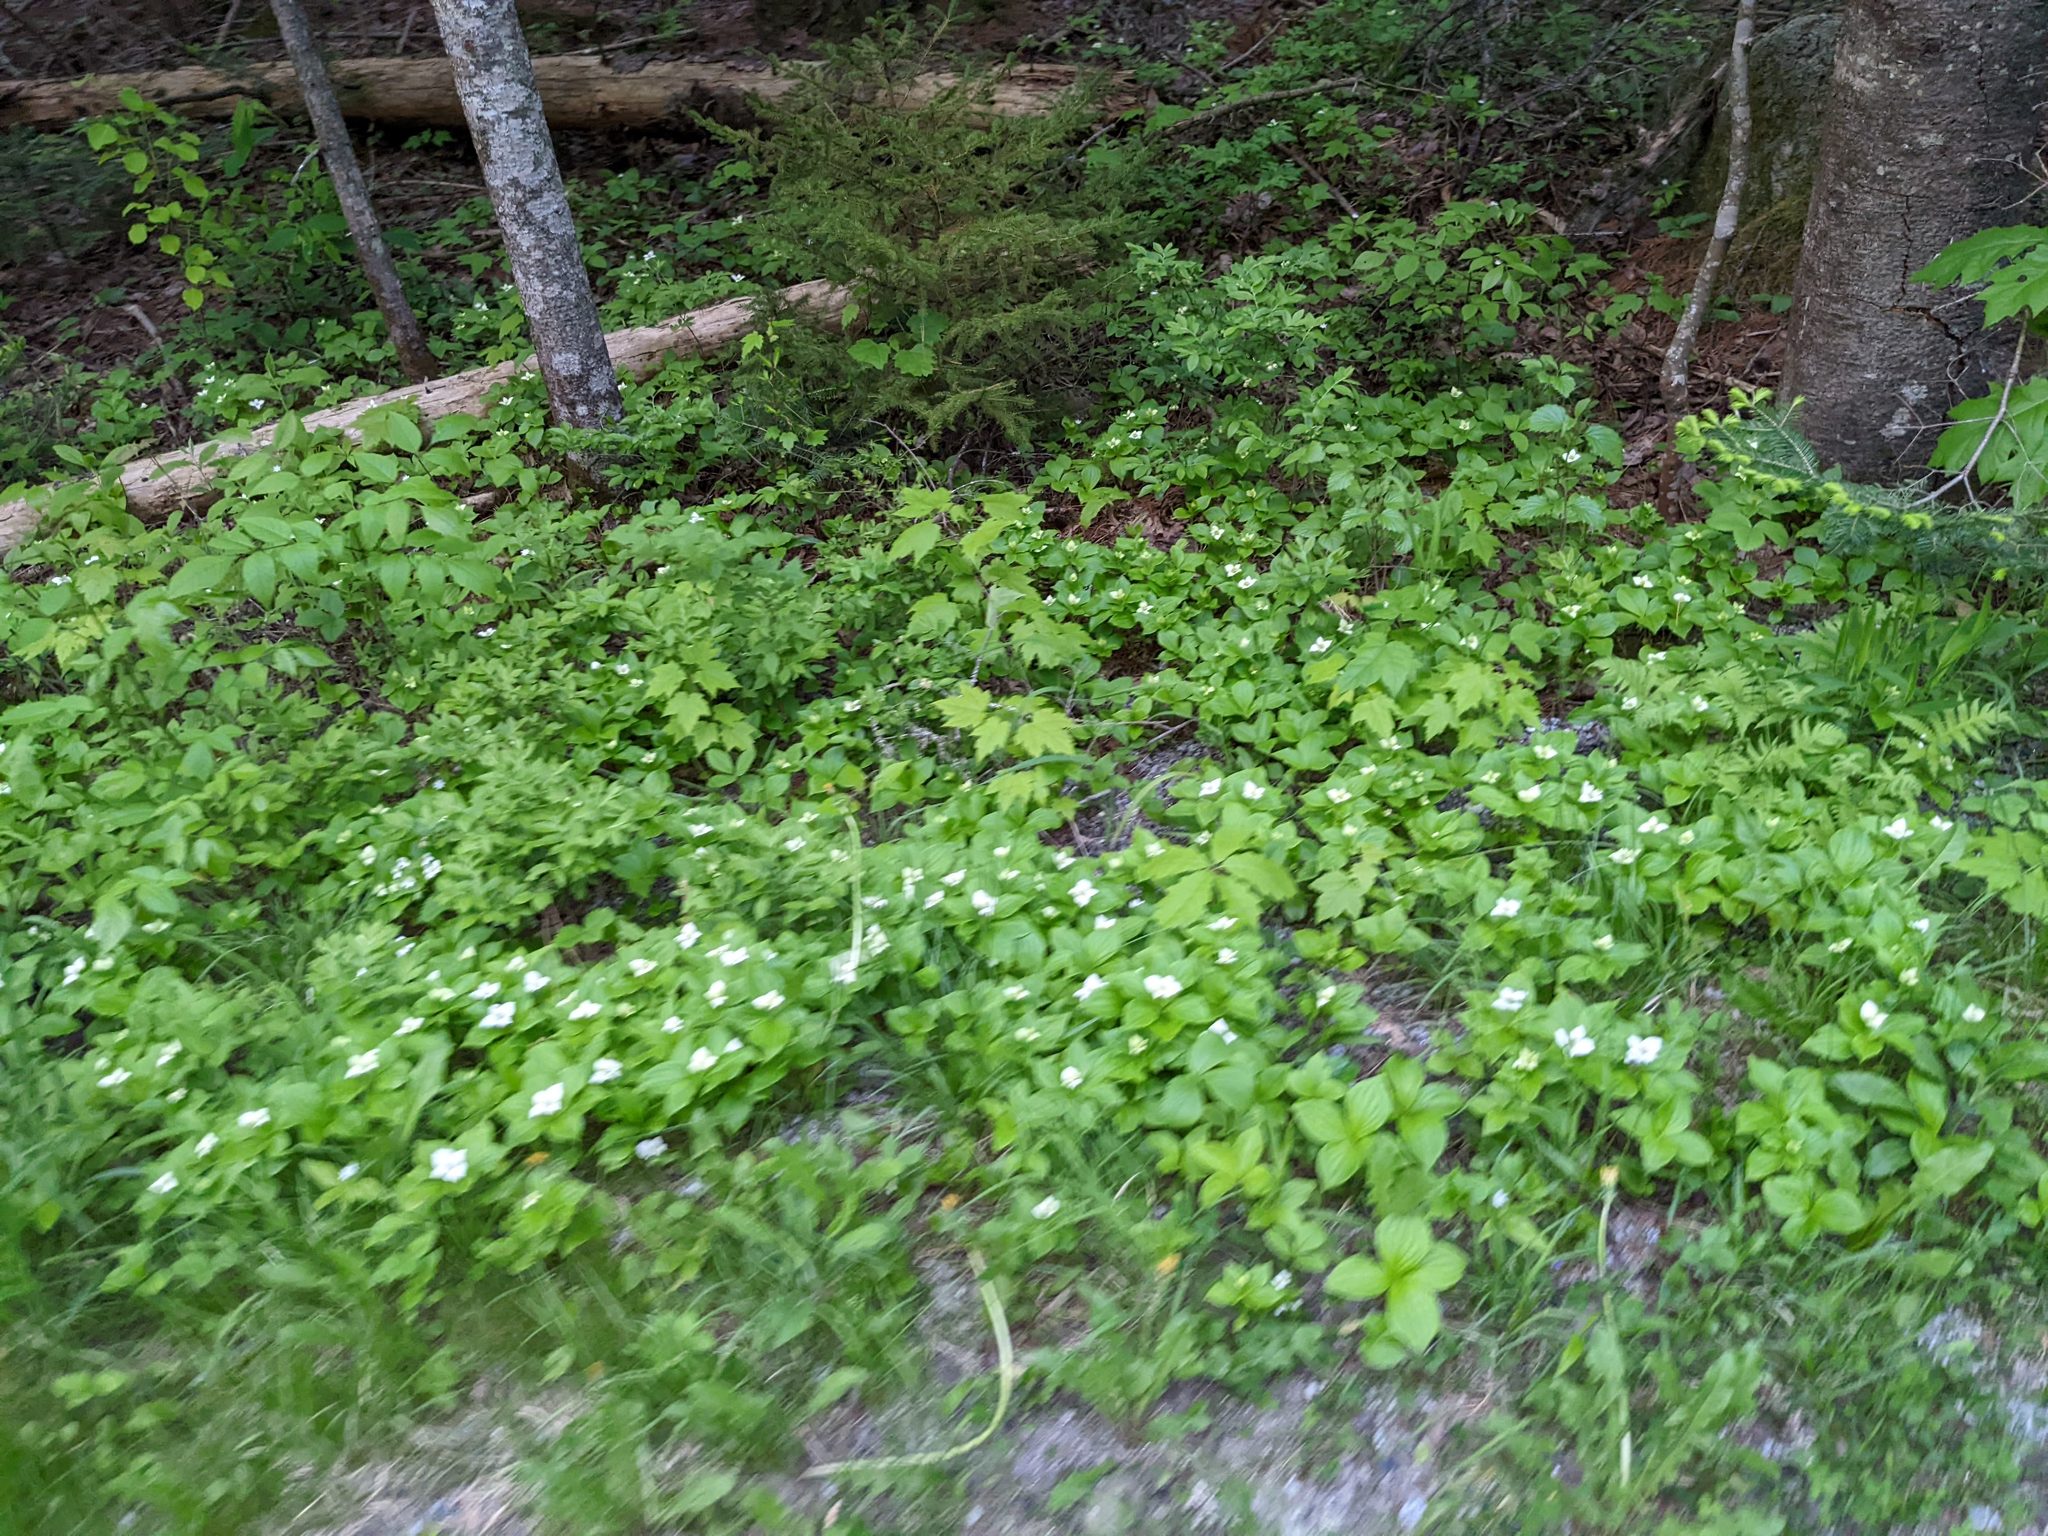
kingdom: Plantae
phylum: Tracheophyta
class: Magnoliopsida
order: Cornales
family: Cornaceae
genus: Cornus
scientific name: Cornus canadensis
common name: Creeping dogwood
